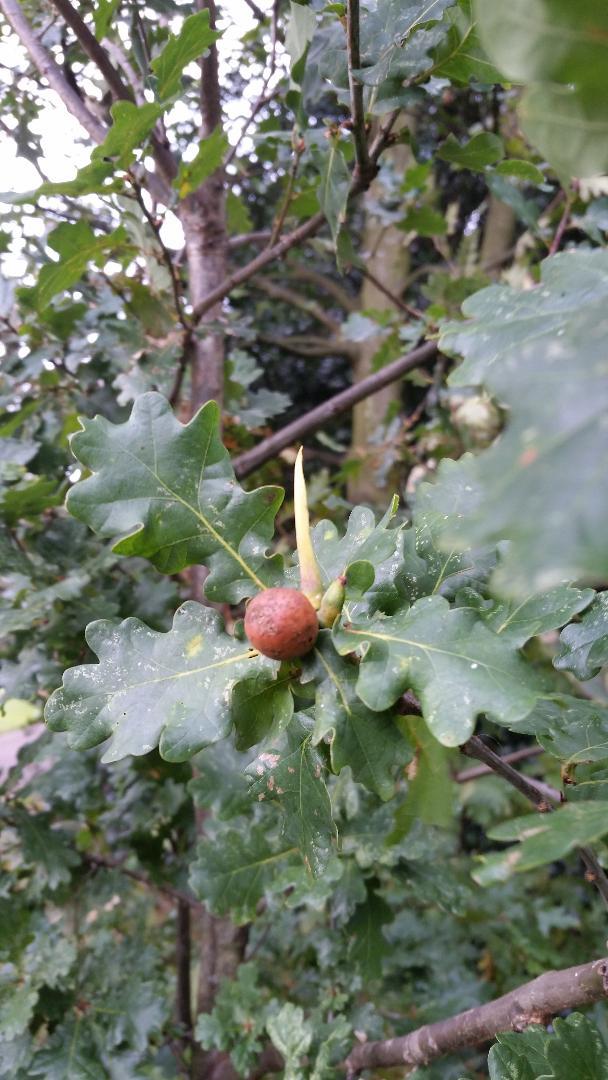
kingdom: Animalia
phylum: Arthropoda
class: Insecta
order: Hymenoptera
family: Cynipidae
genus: Andricus
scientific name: Andricus aries
